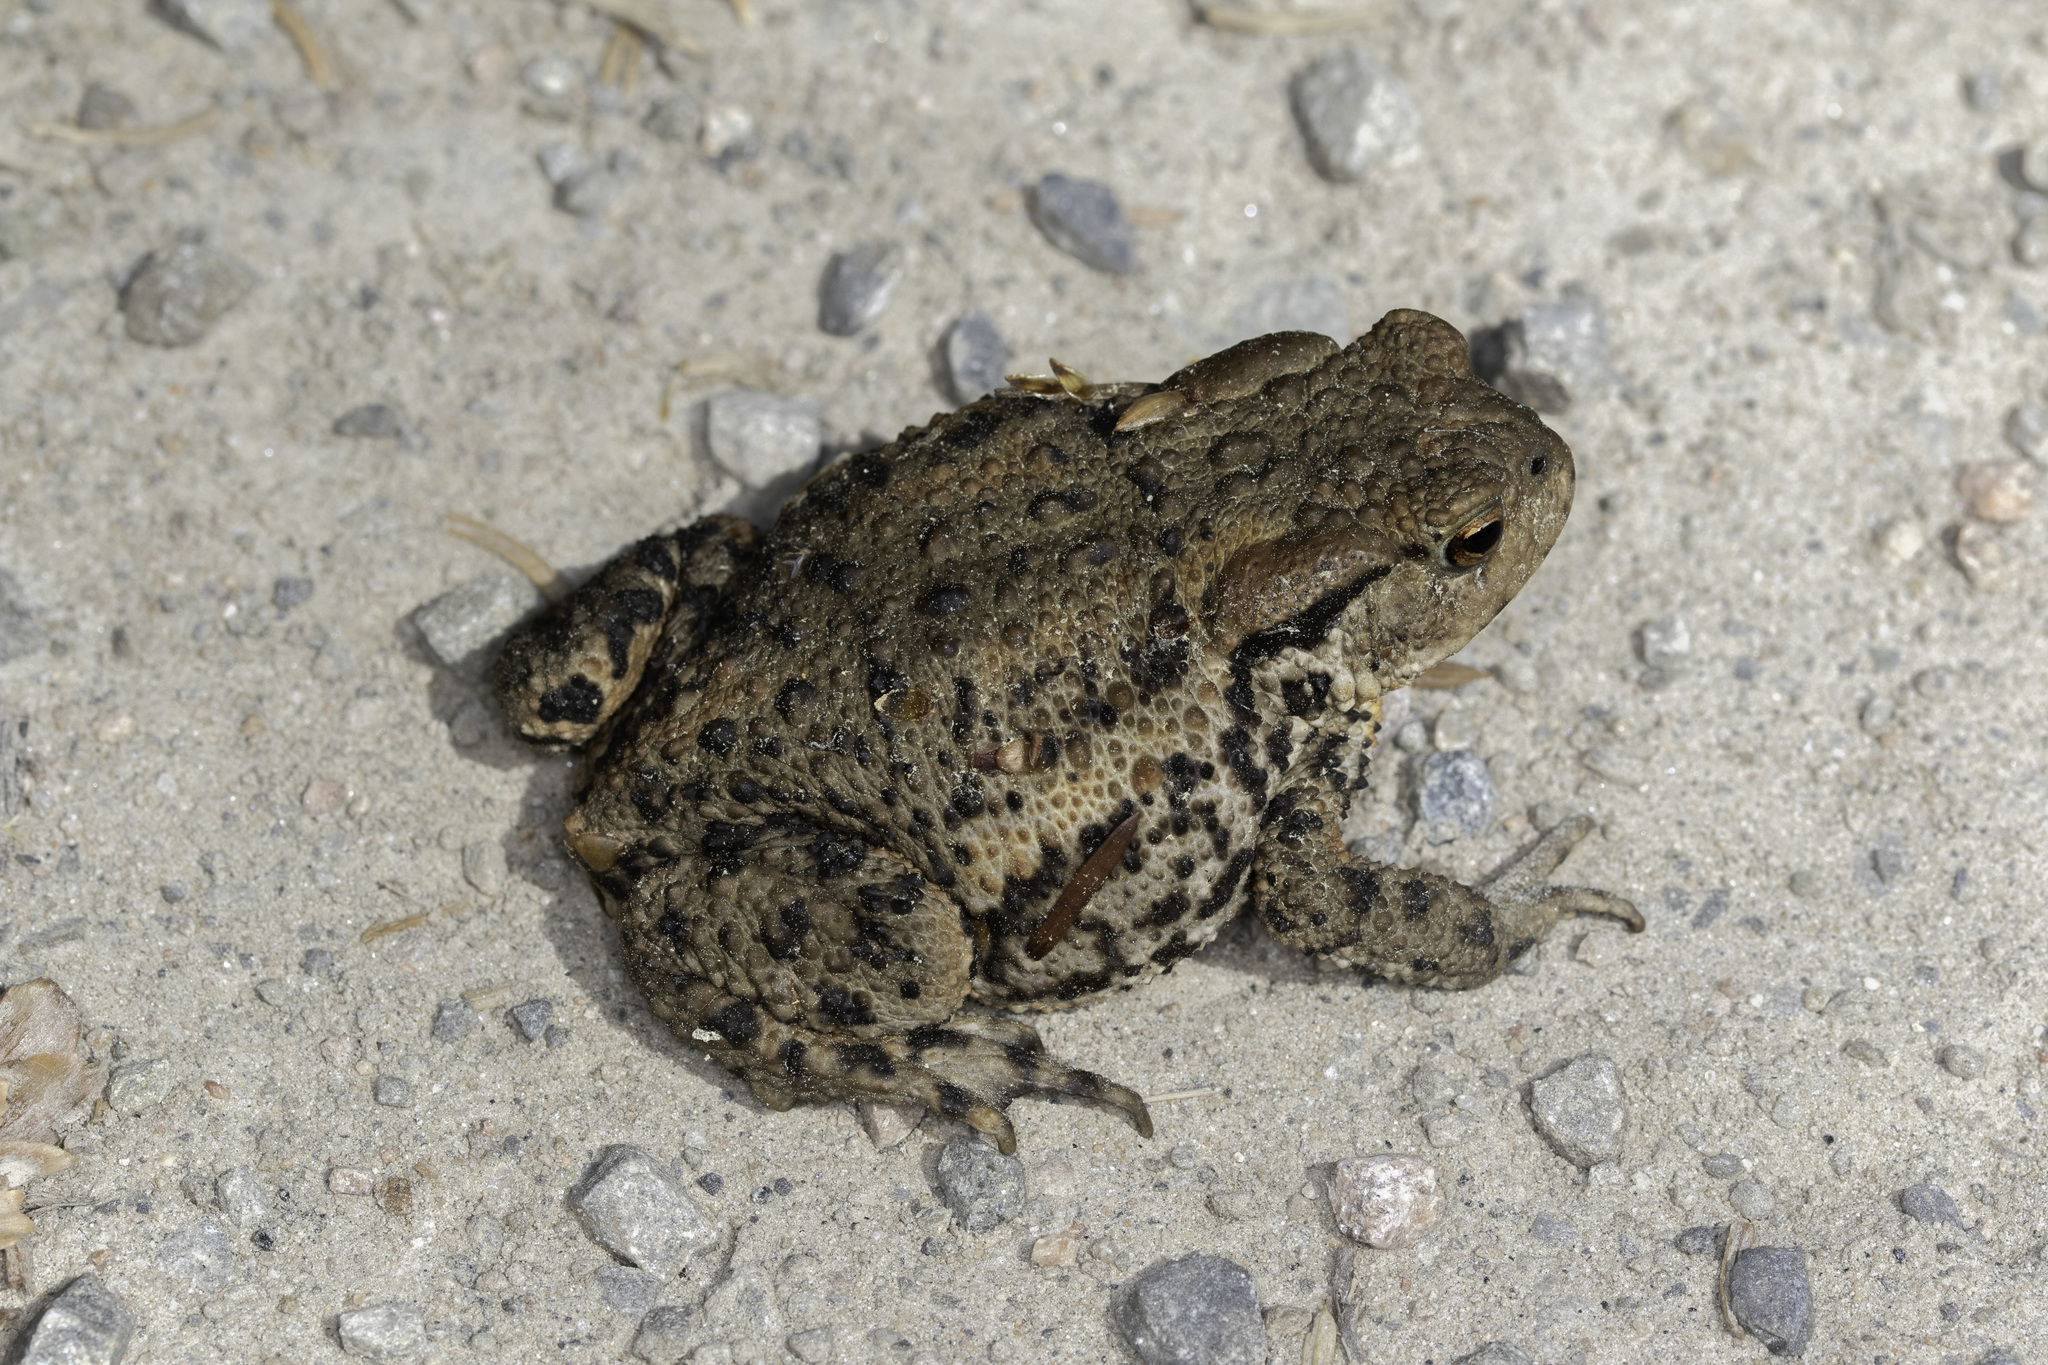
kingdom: Animalia
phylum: Chordata
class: Amphibia
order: Anura
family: Bufonidae
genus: Bufo
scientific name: Bufo bufo
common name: Common toad
